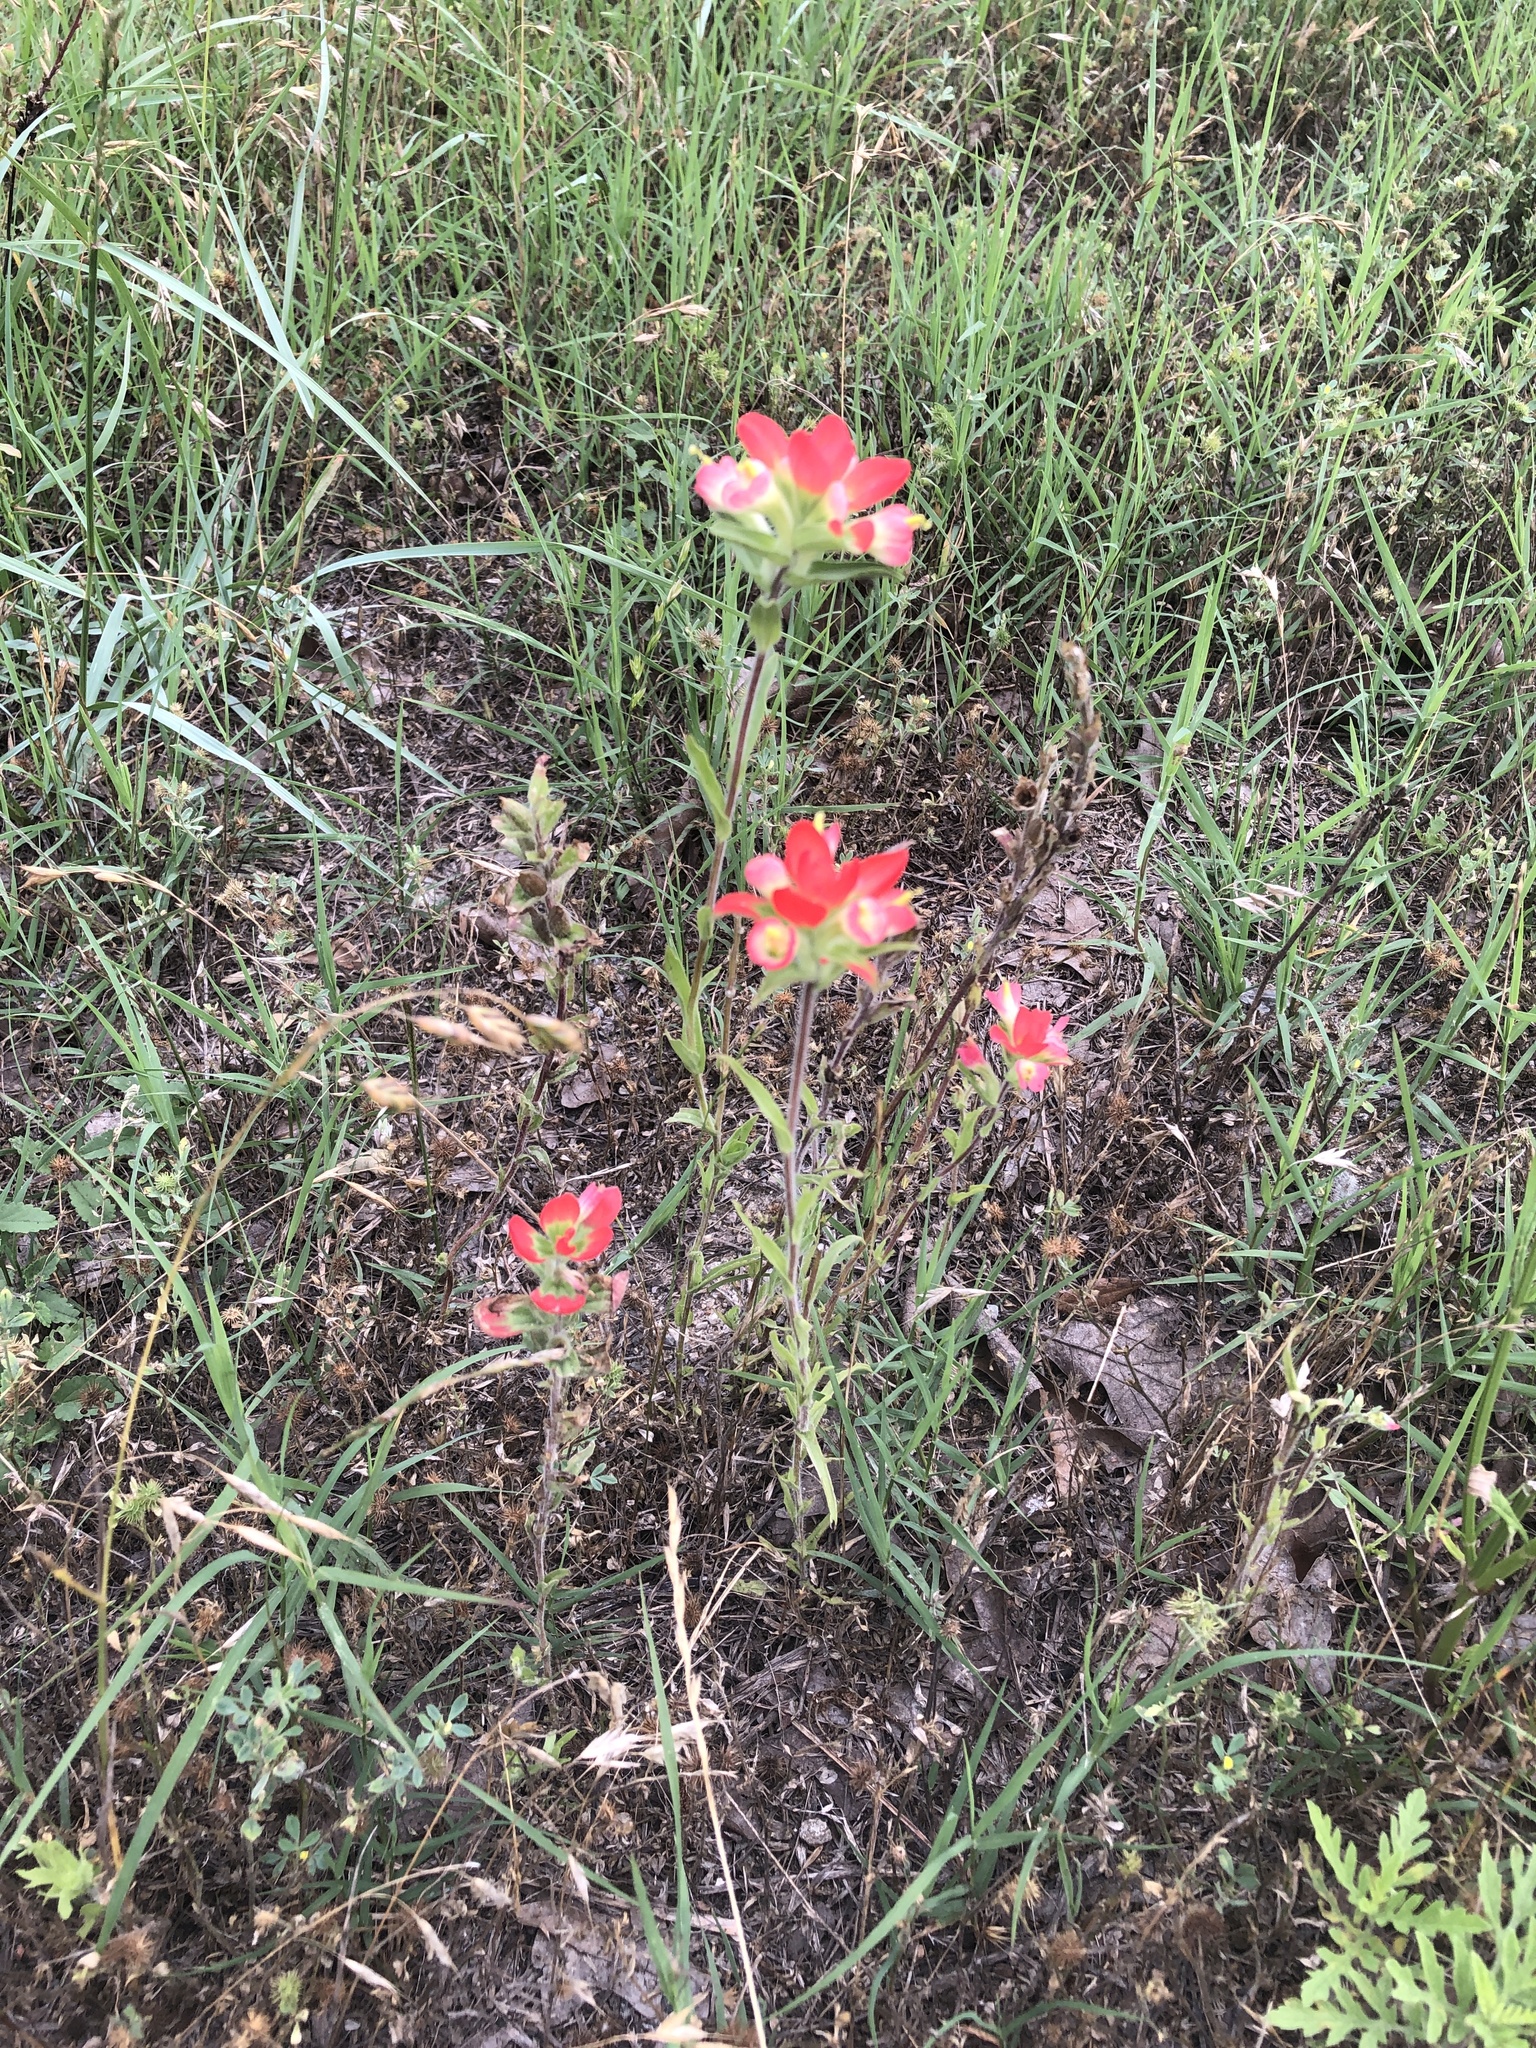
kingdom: Plantae
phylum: Tracheophyta
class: Magnoliopsida
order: Lamiales
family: Orobanchaceae
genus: Castilleja
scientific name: Castilleja indivisa
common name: Texas paintbrush
